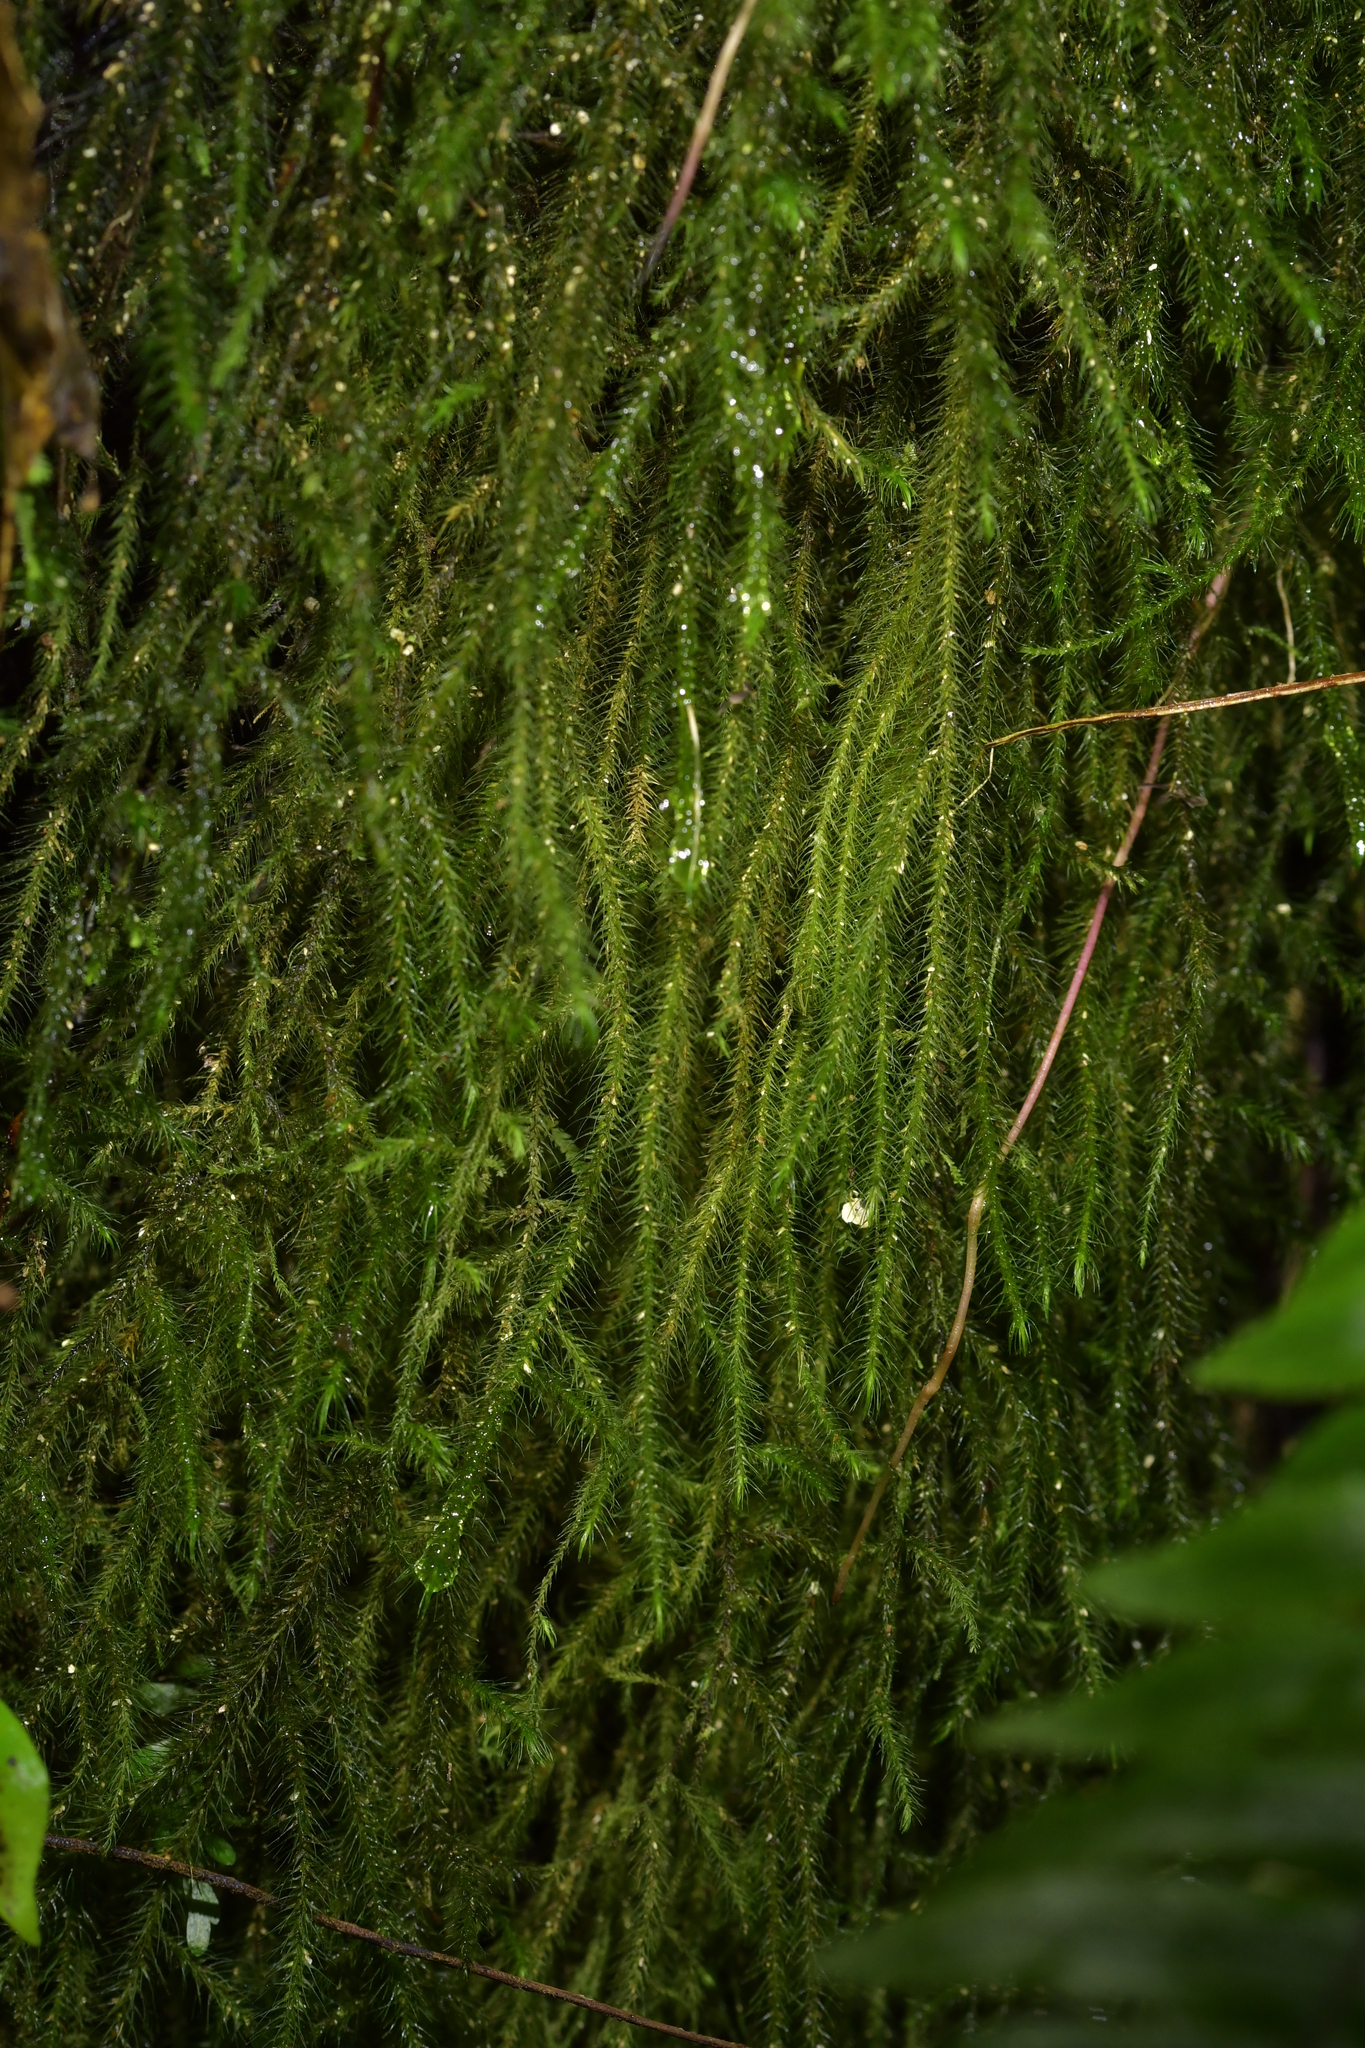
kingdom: Plantae
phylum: Bryophyta
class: Bryopsida
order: Hypnales
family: Neckeraceae
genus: Echinodiopsis
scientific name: Echinodiopsis hispida
